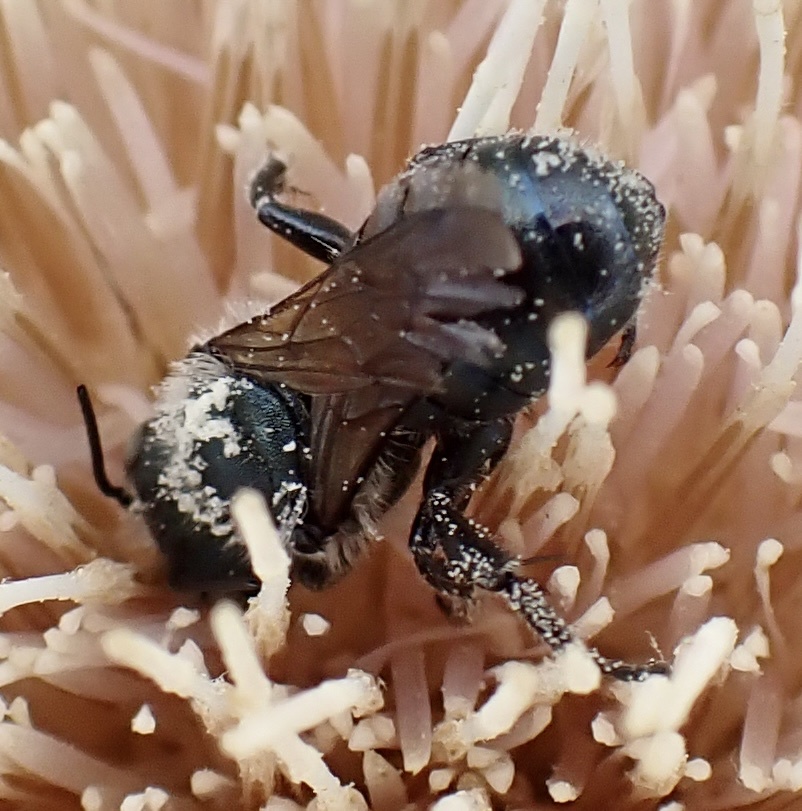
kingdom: Animalia
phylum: Arthropoda
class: Insecta
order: Hymenoptera
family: Megachilidae
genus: Osmia
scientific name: Osmia chalybea
